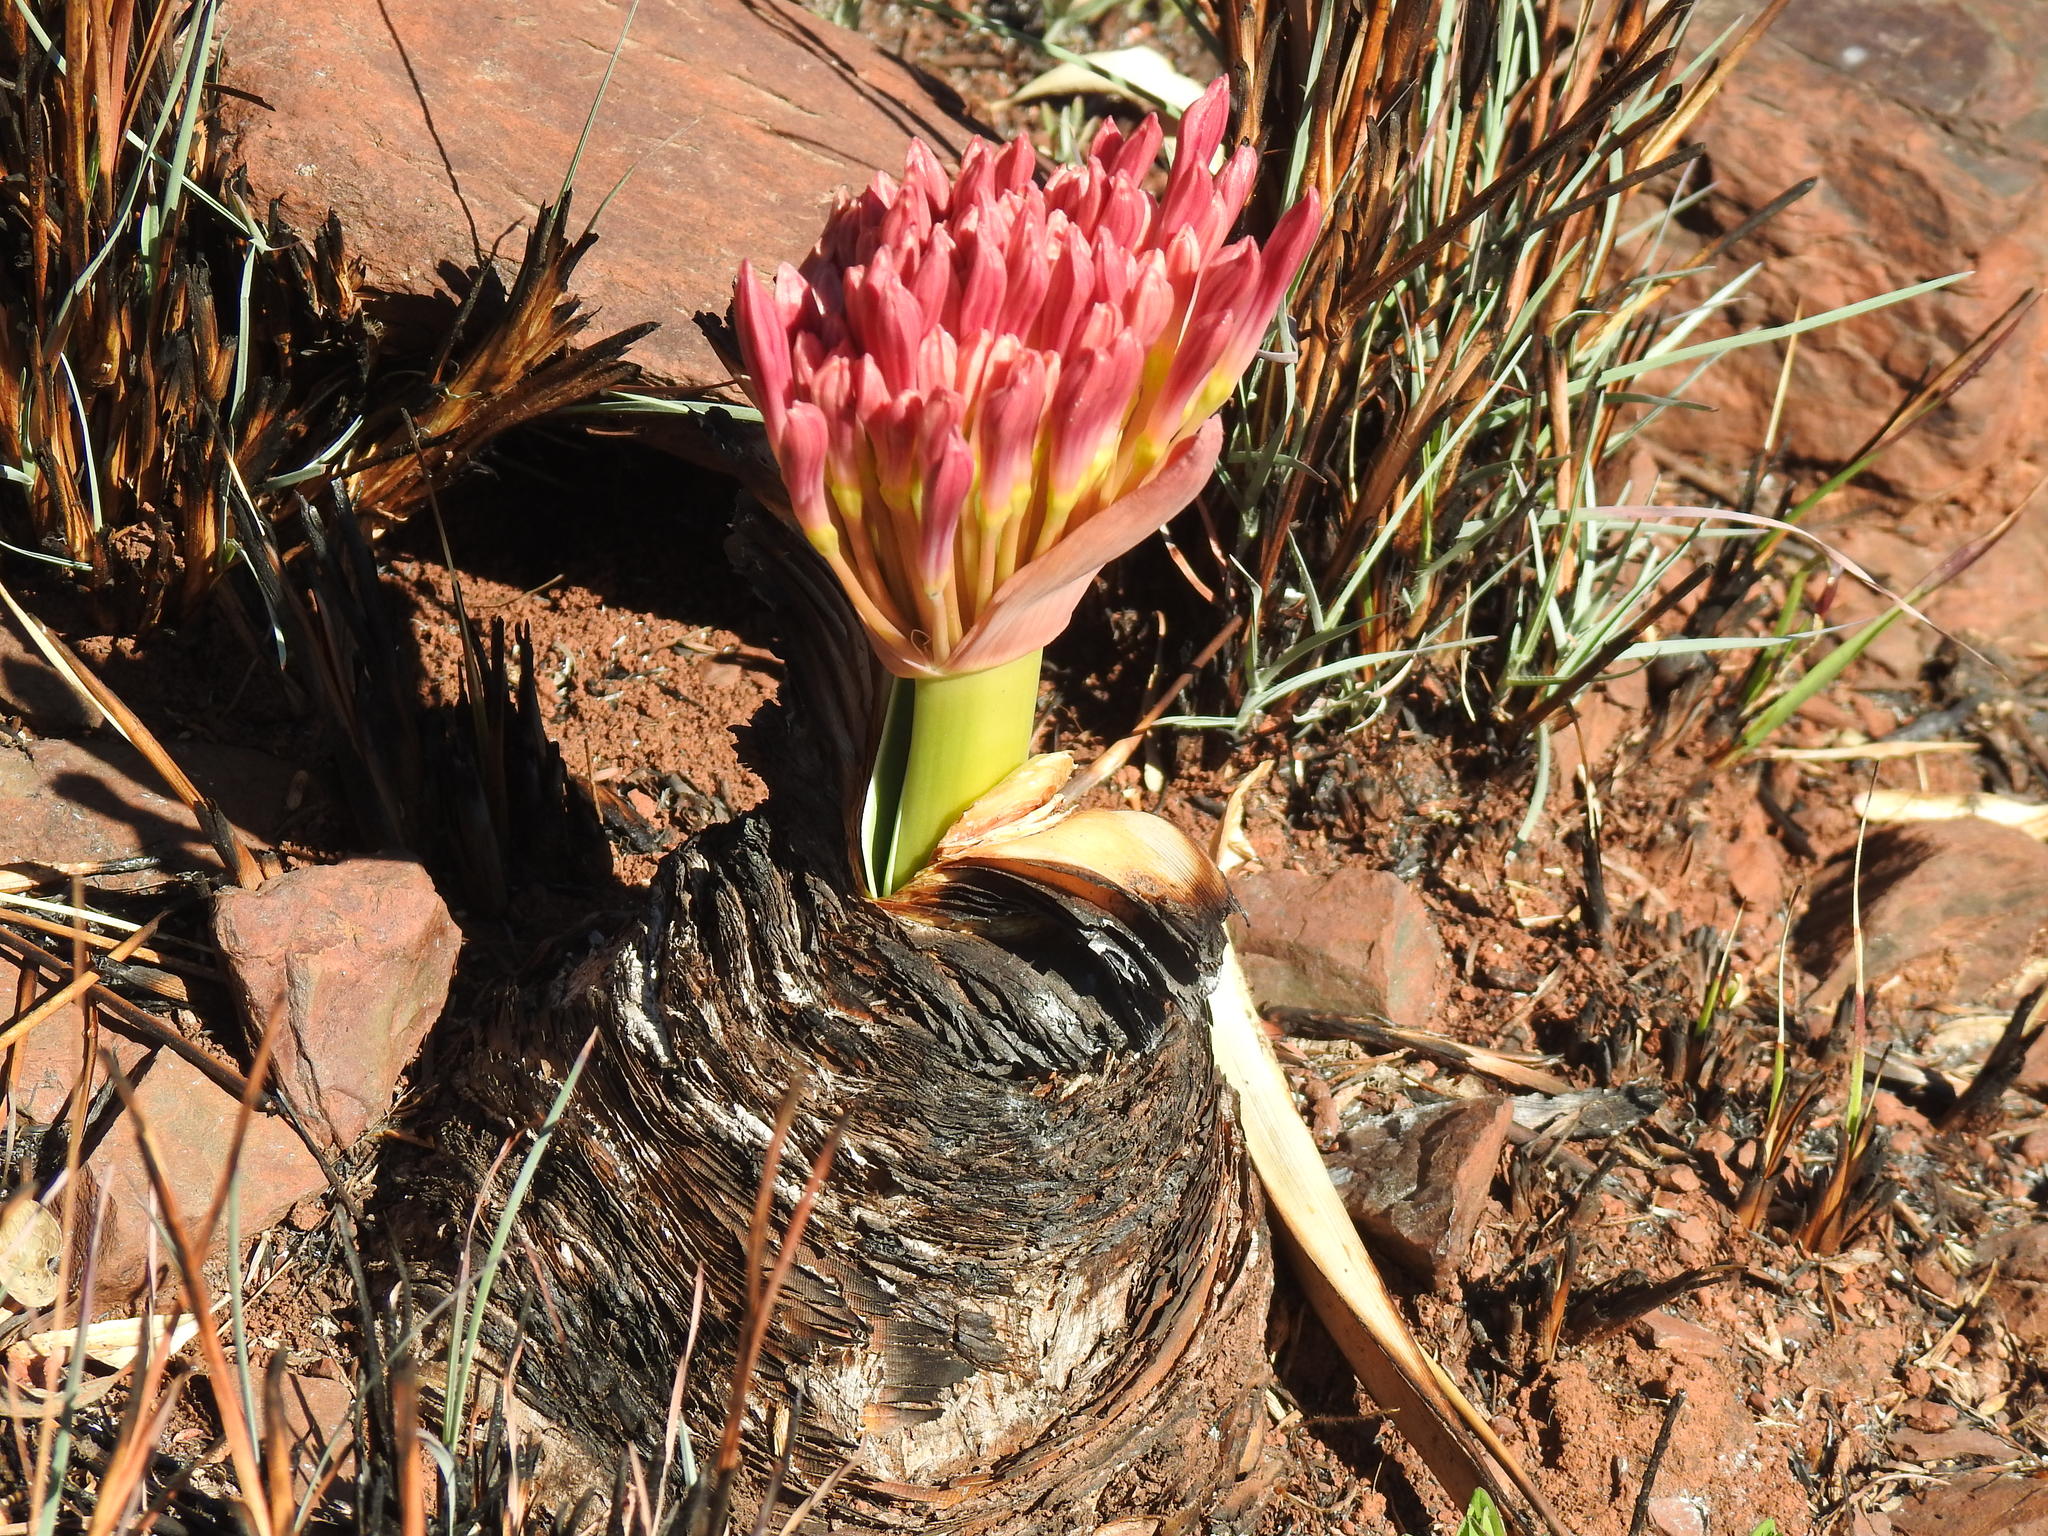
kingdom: Plantae
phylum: Tracheophyta
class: Liliopsida
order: Asparagales
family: Amaryllidaceae
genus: Boophone
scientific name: Boophone disticha
